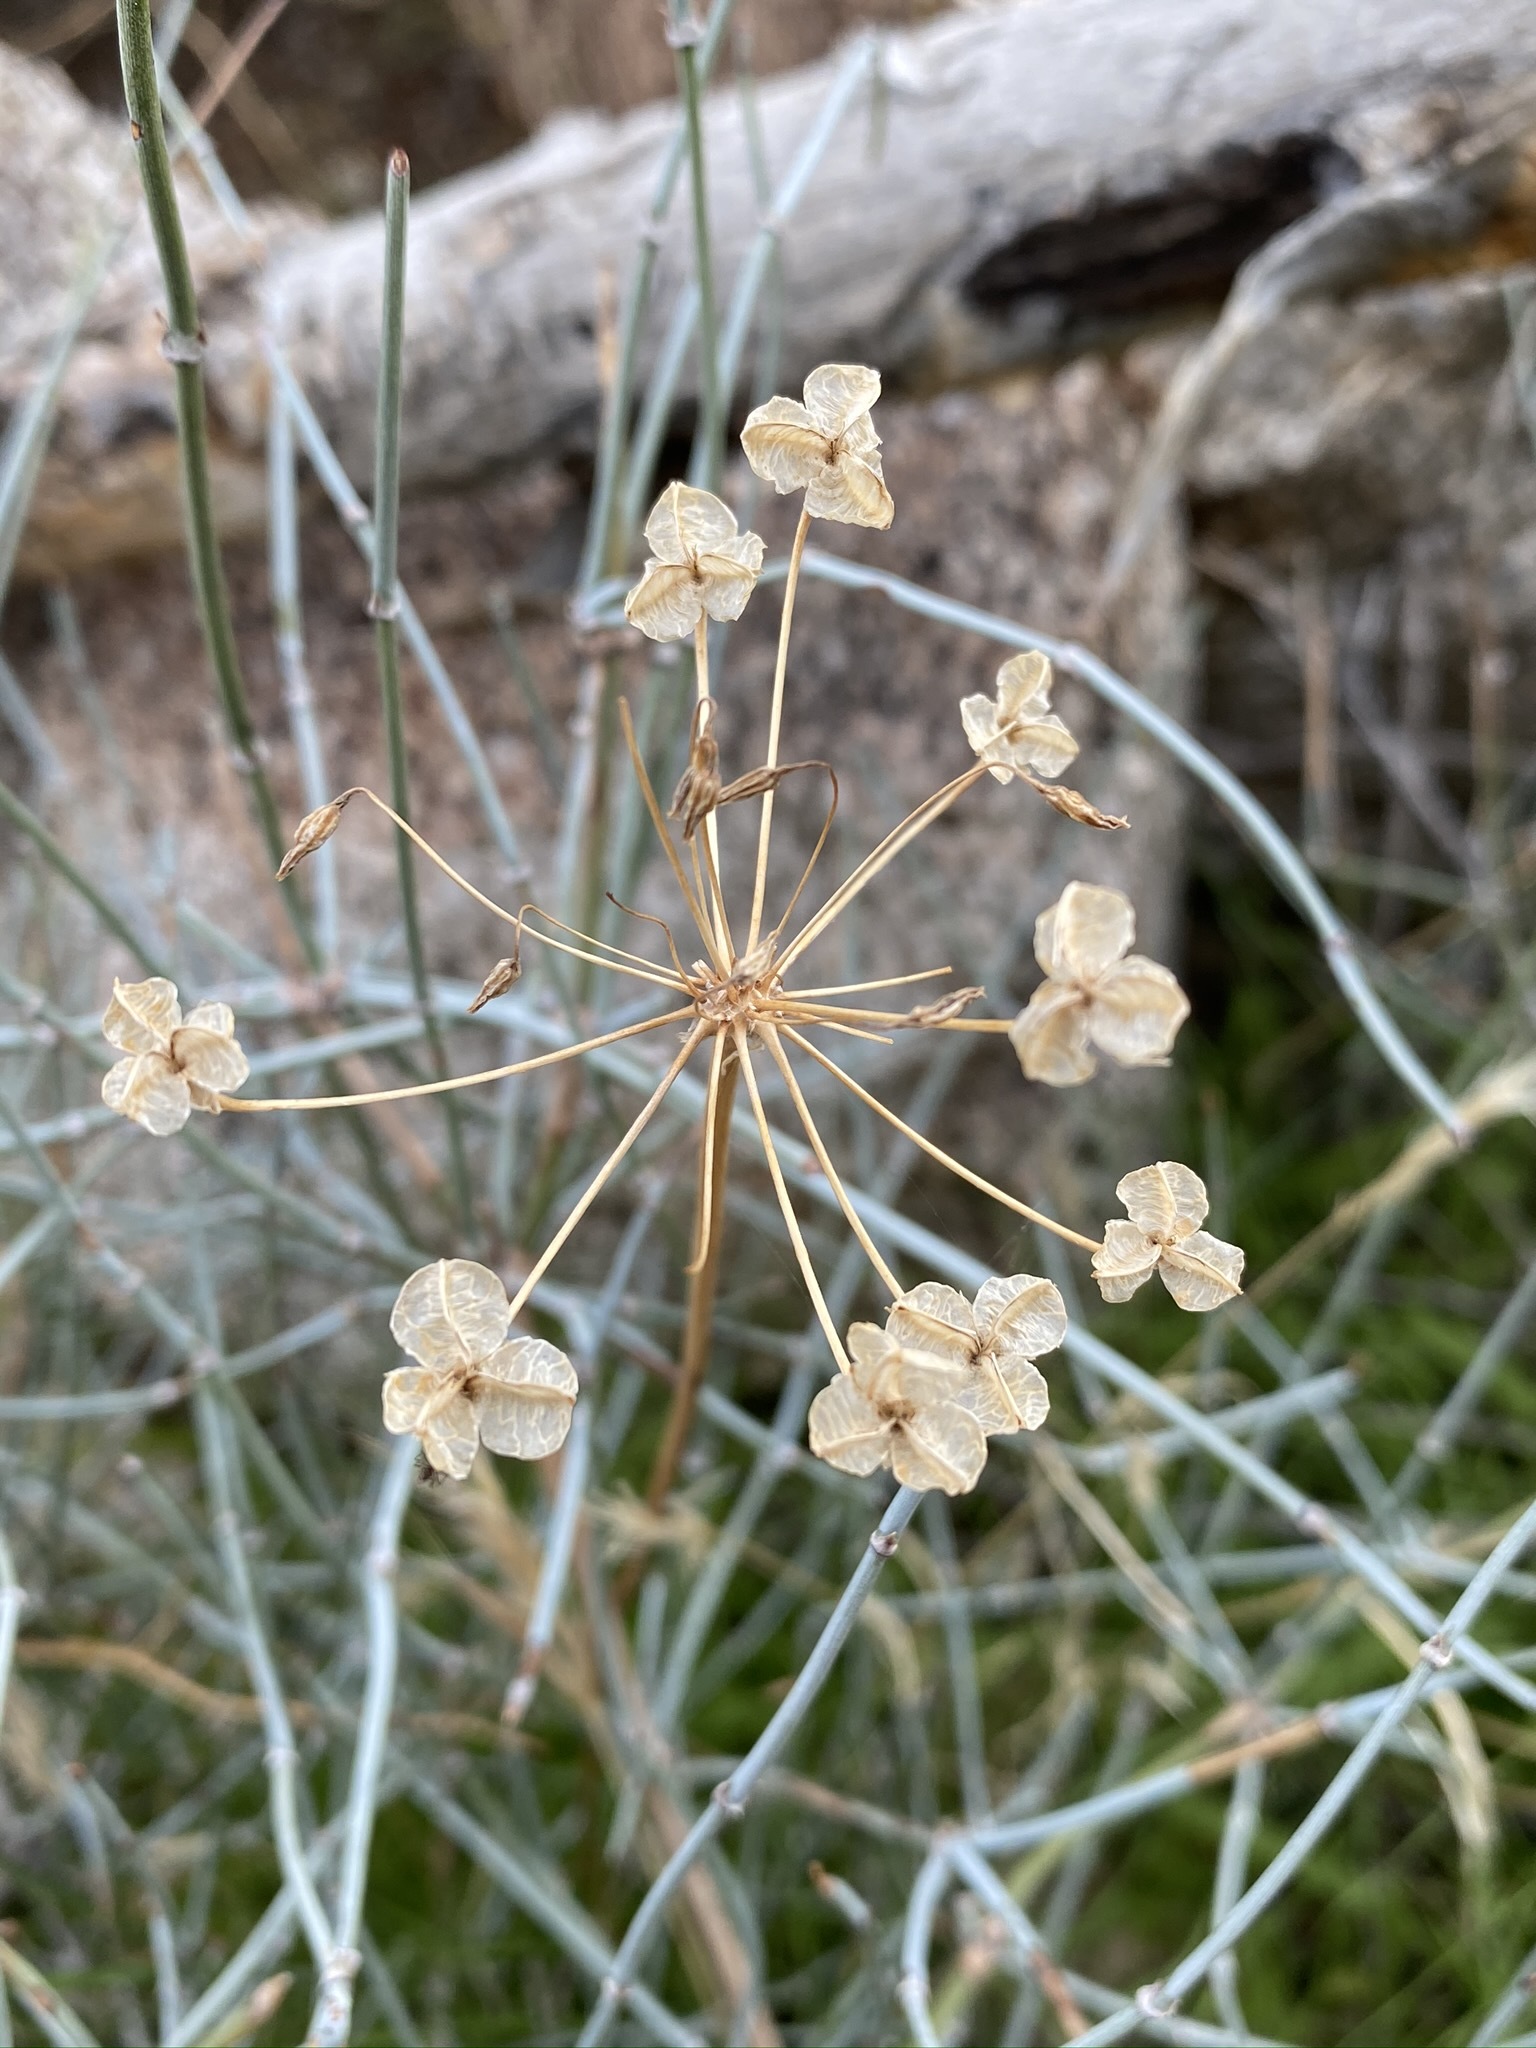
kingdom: Plantae
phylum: Tracheophyta
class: Liliopsida
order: Asparagales
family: Asparagaceae
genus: Muilla
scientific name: Muilla maritima
